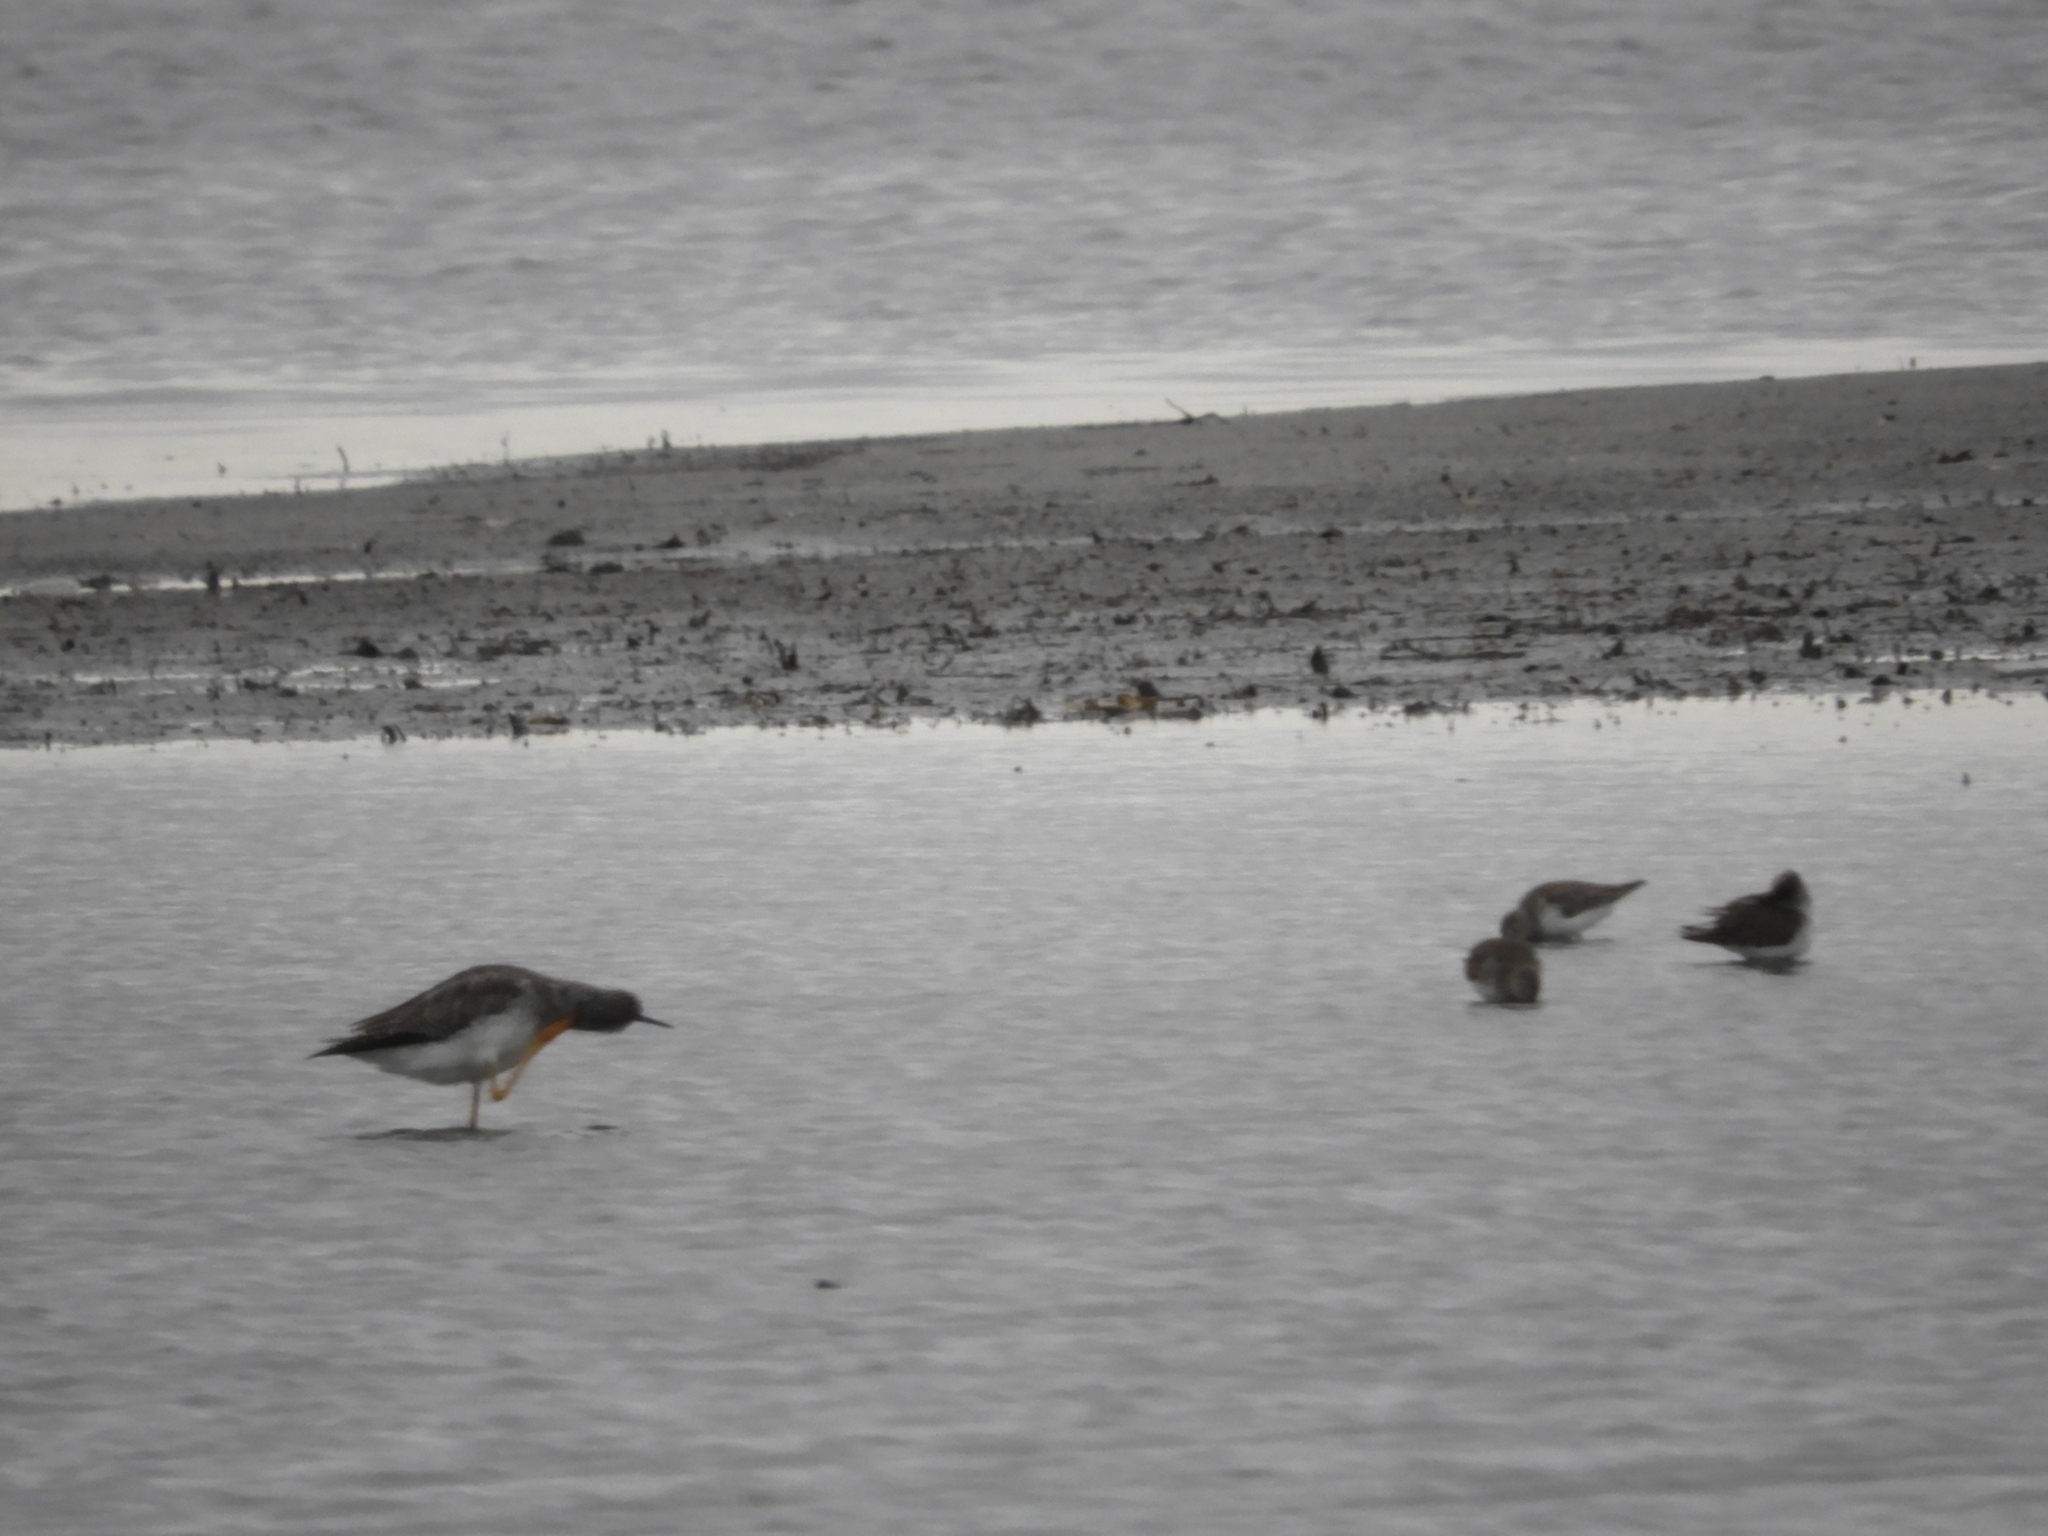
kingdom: Animalia
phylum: Chordata
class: Aves
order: Charadriiformes
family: Scolopacidae
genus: Tringa
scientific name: Tringa melanoleuca
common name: Greater yellowlegs
